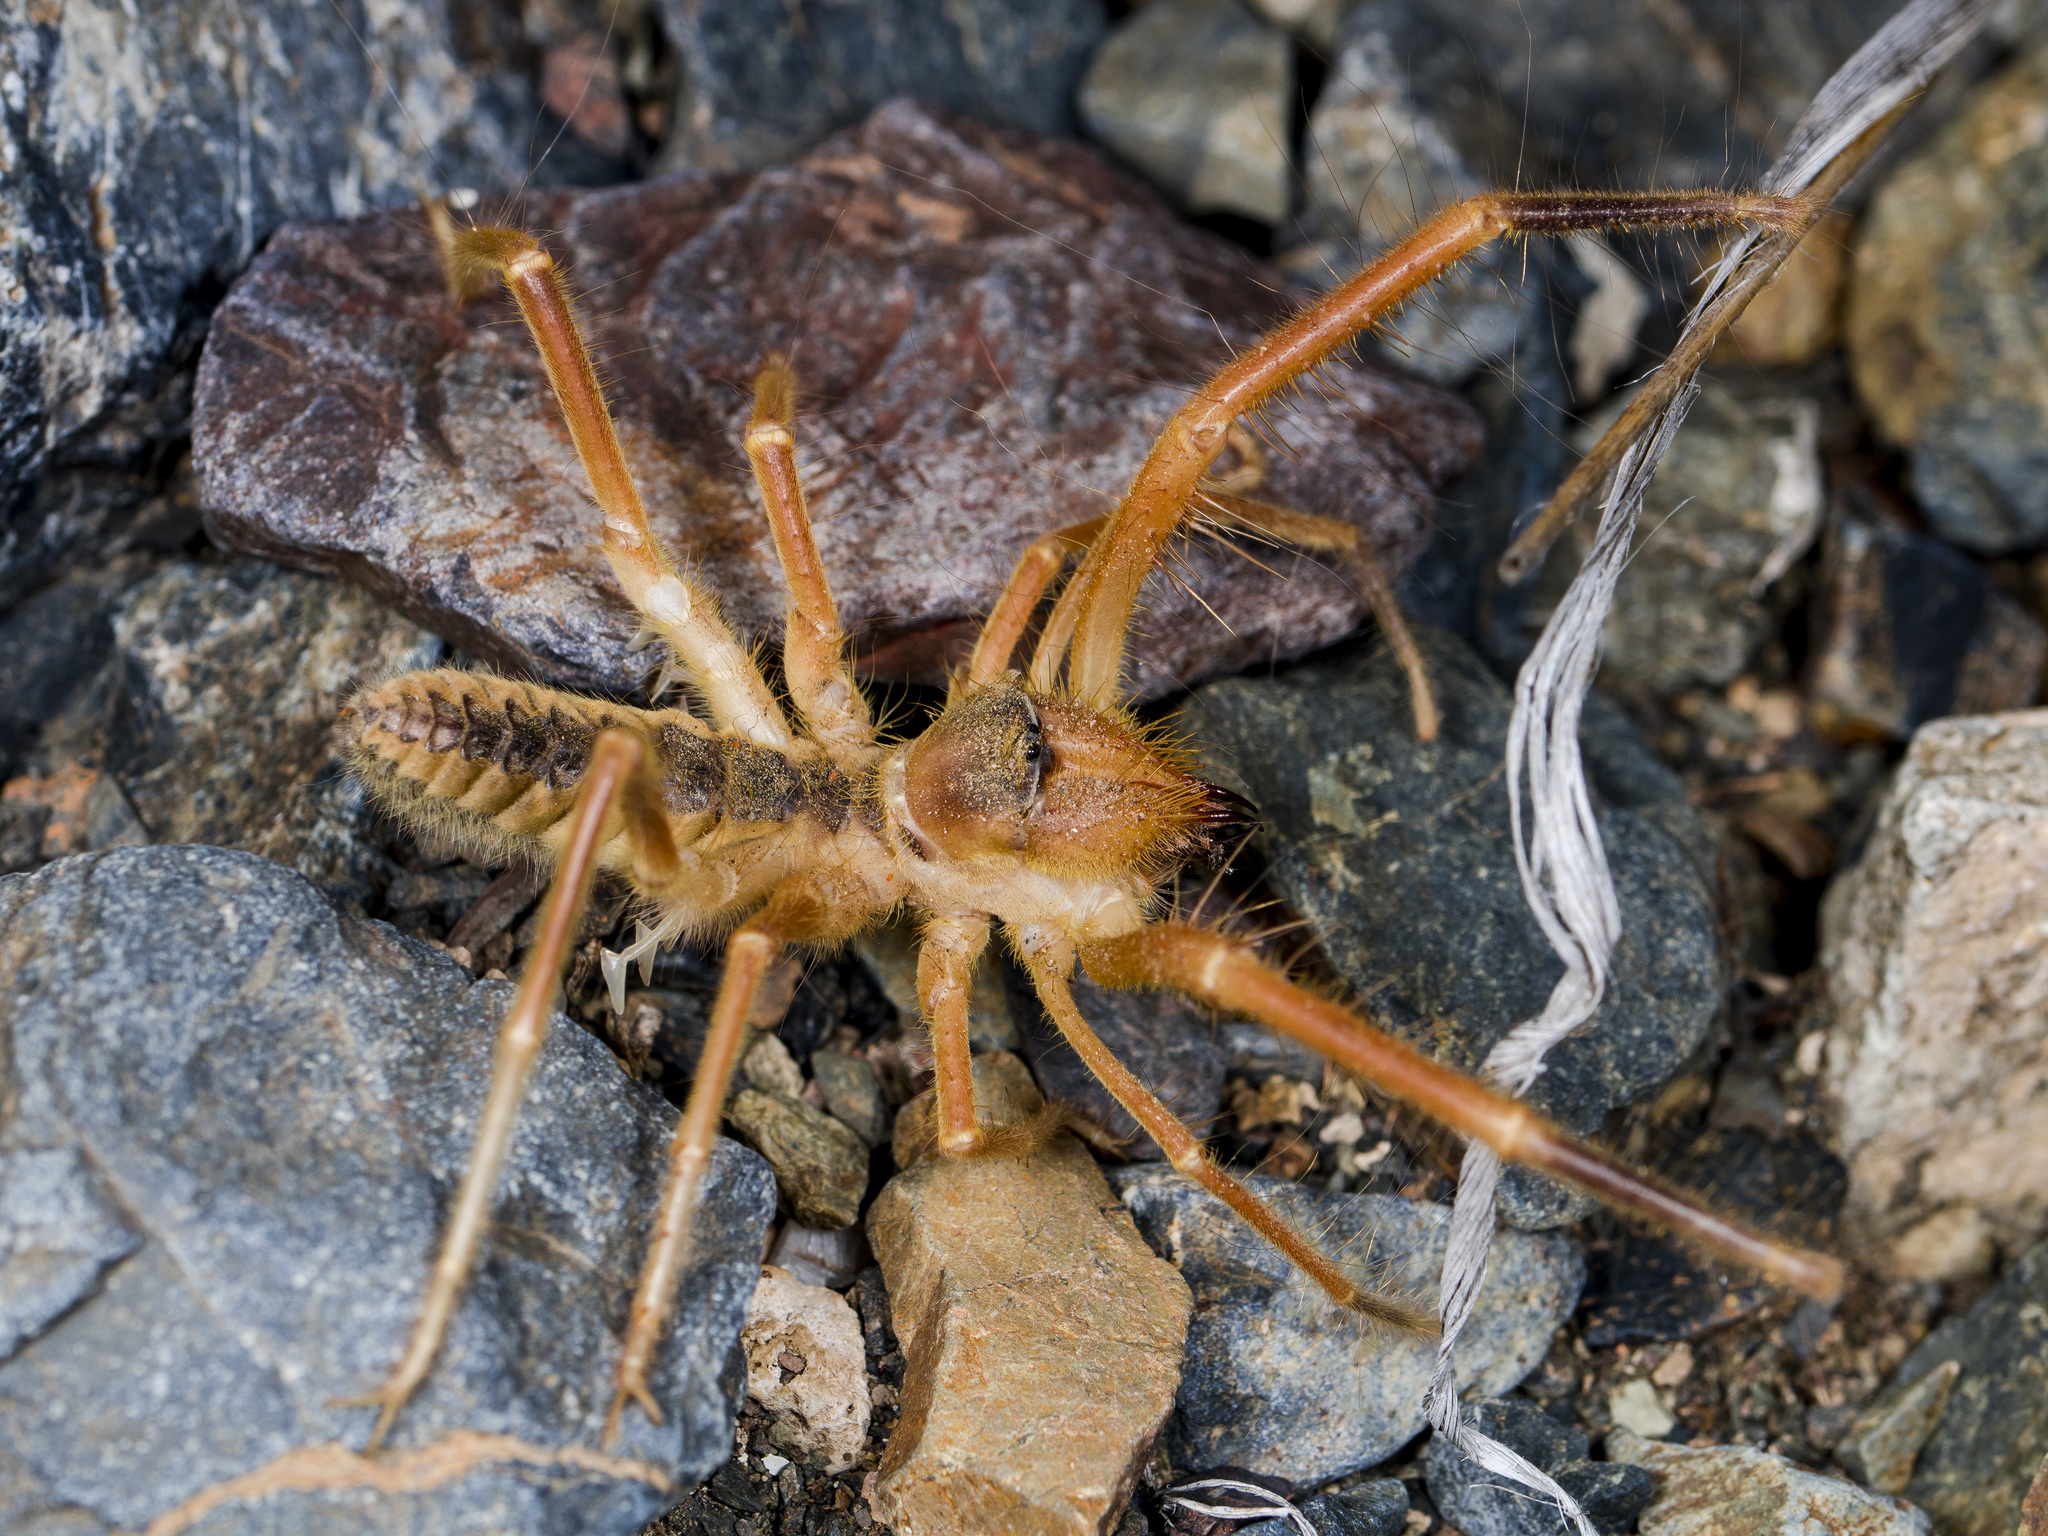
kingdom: Animalia
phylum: Arthropoda
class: Arachnida
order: Solifugae
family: Galeodidae
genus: Galeodes
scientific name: Galeodes caspius
